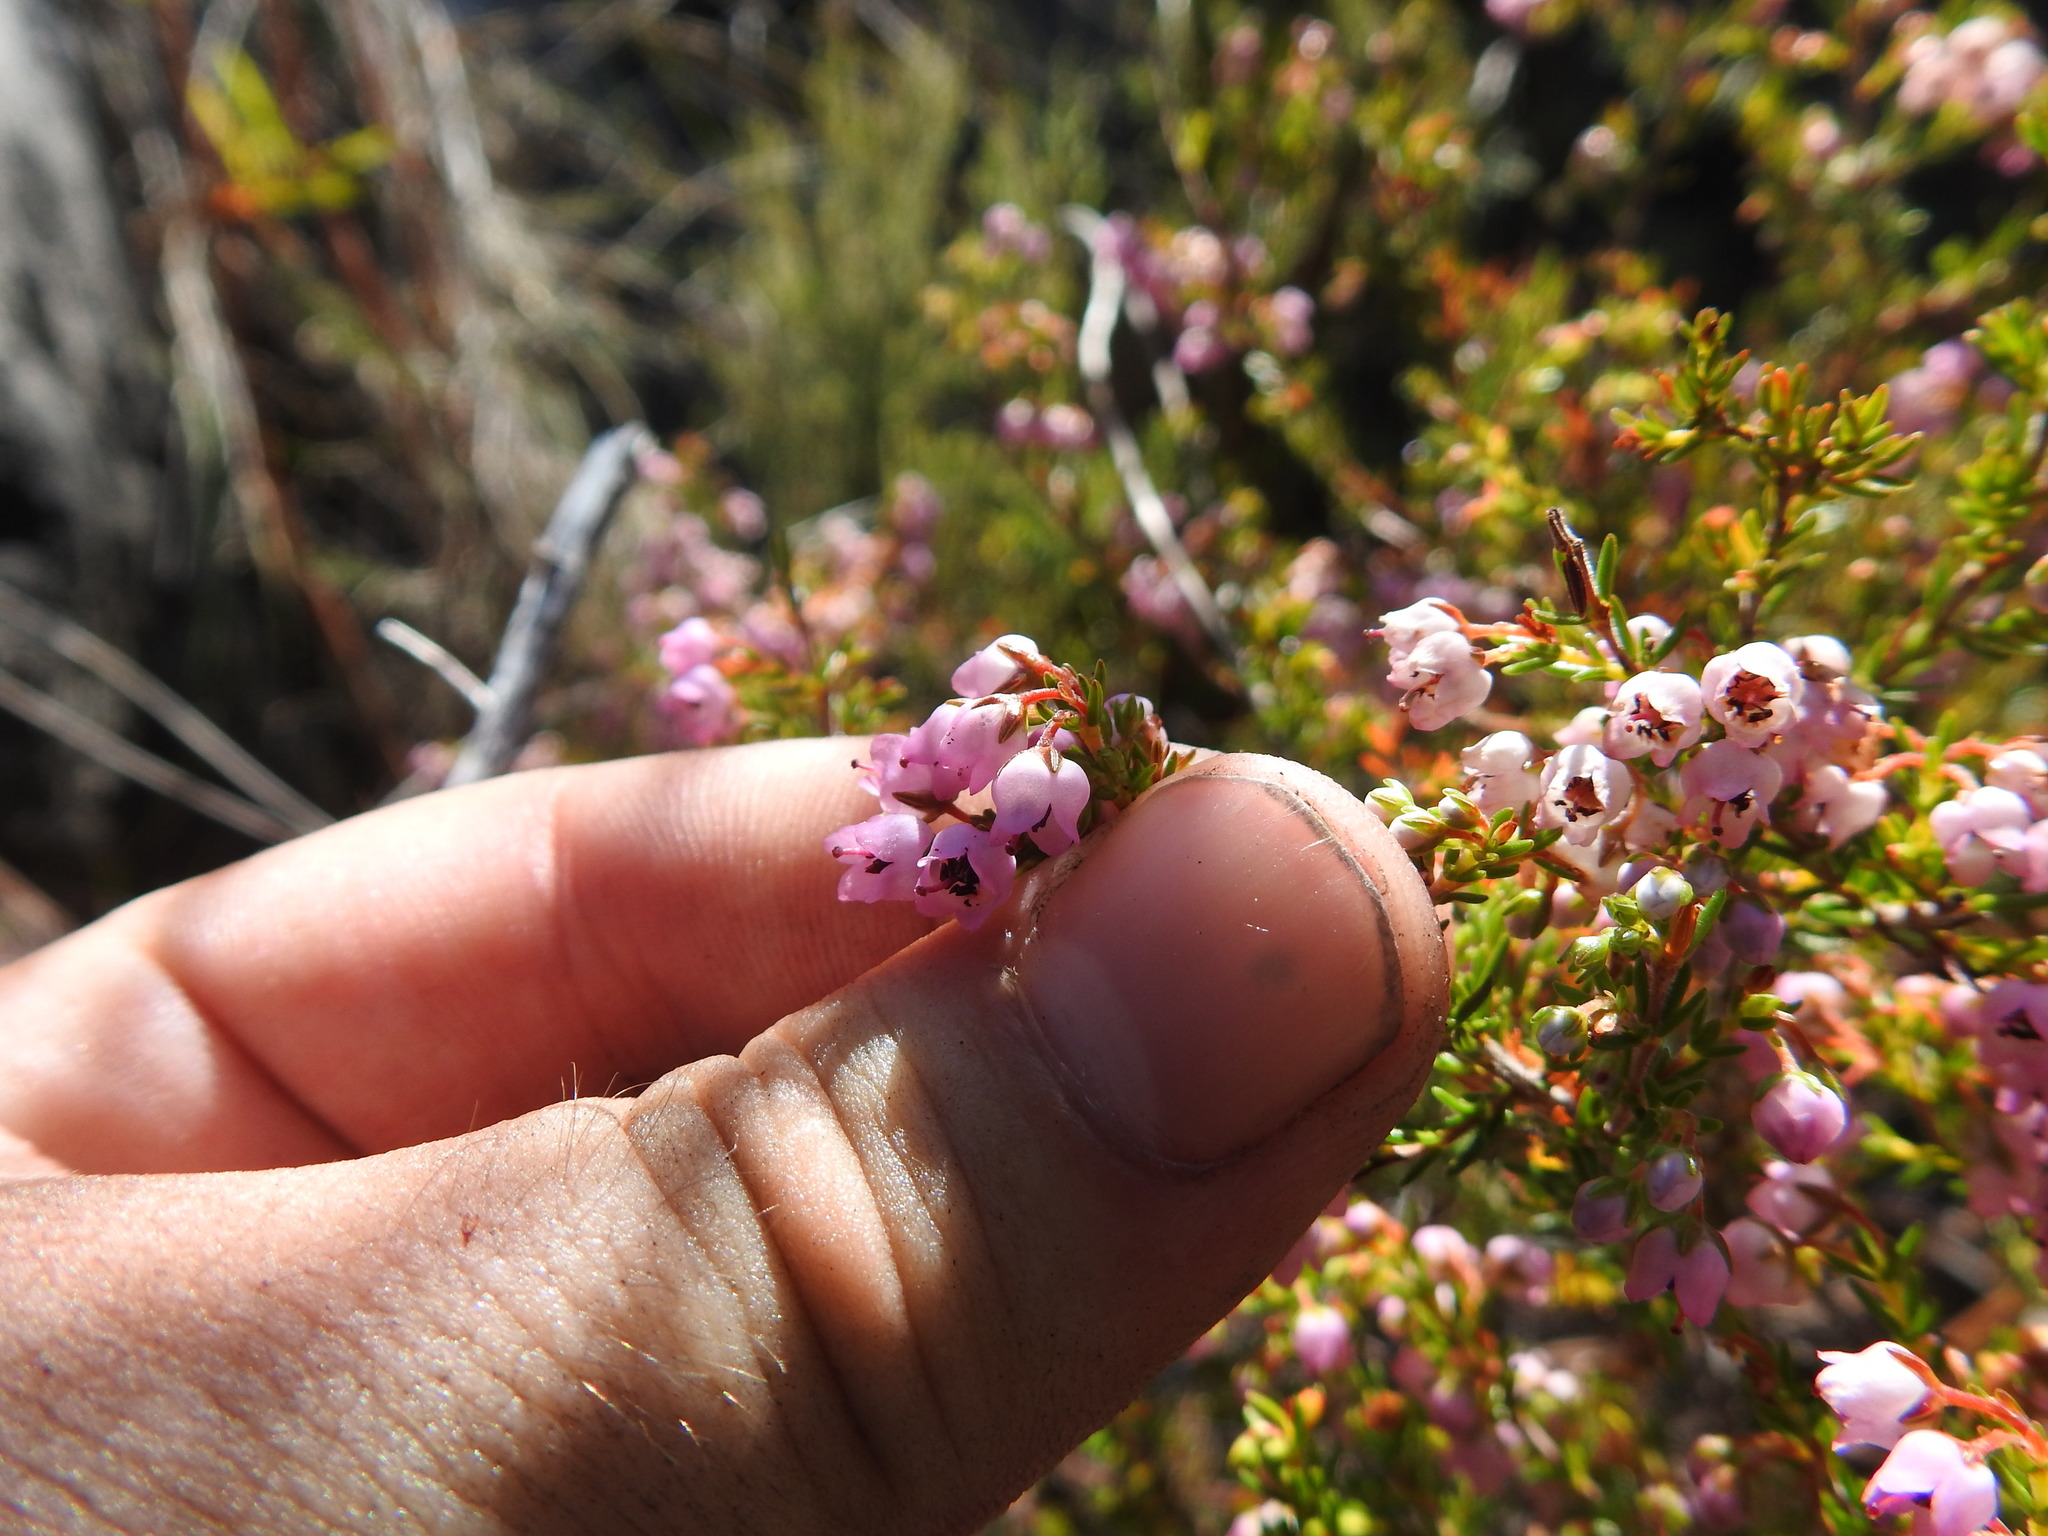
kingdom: Plantae
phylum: Tracheophyta
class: Magnoliopsida
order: Ericales
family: Ericaceae
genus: Erica
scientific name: Erica curvirostris
